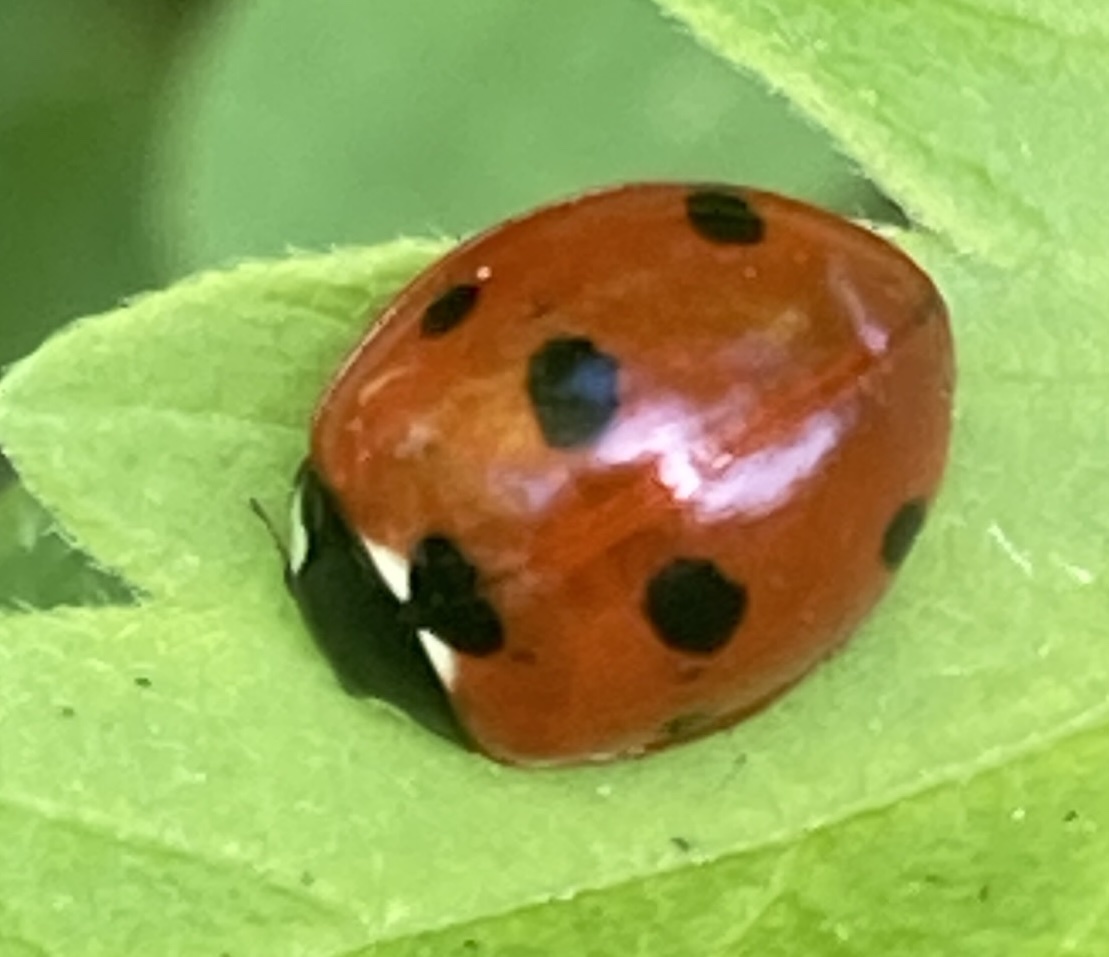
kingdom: Animalia
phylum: Arthropoda
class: Insecta
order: Coleoptera
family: Coccinellidae
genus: Coccinella
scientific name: Coccinella septempunctata
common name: Sevenspotted lady beetle
